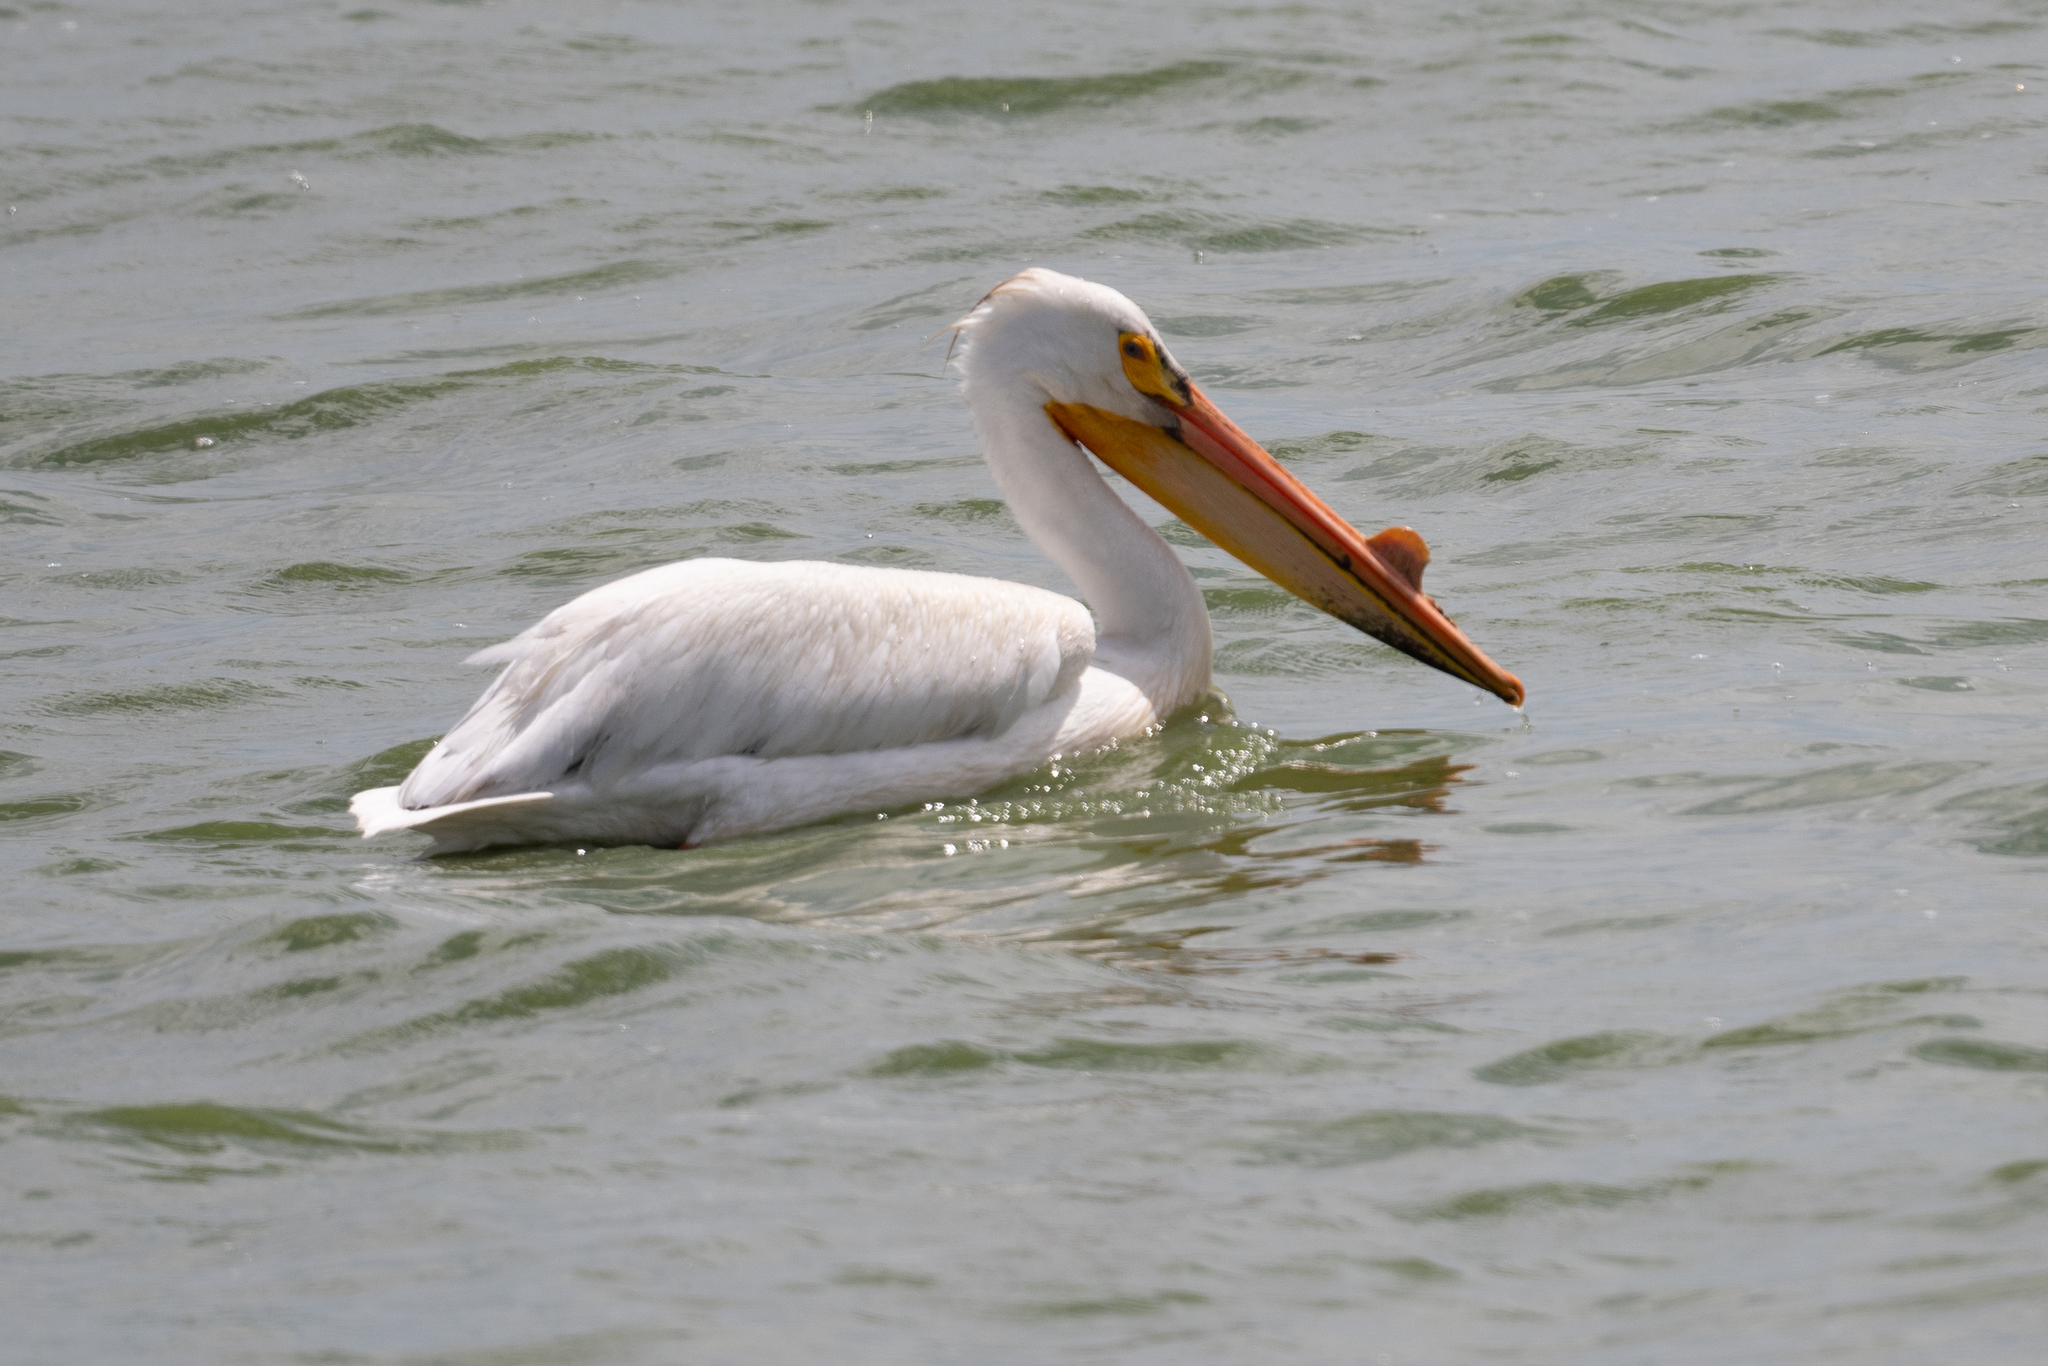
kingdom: Animalia
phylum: Chordata
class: Aves
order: Pelecaniformes
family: Pelecanidae
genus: Pelecanus
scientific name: Pelecanus erythrorhynchos
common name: American white pelican
